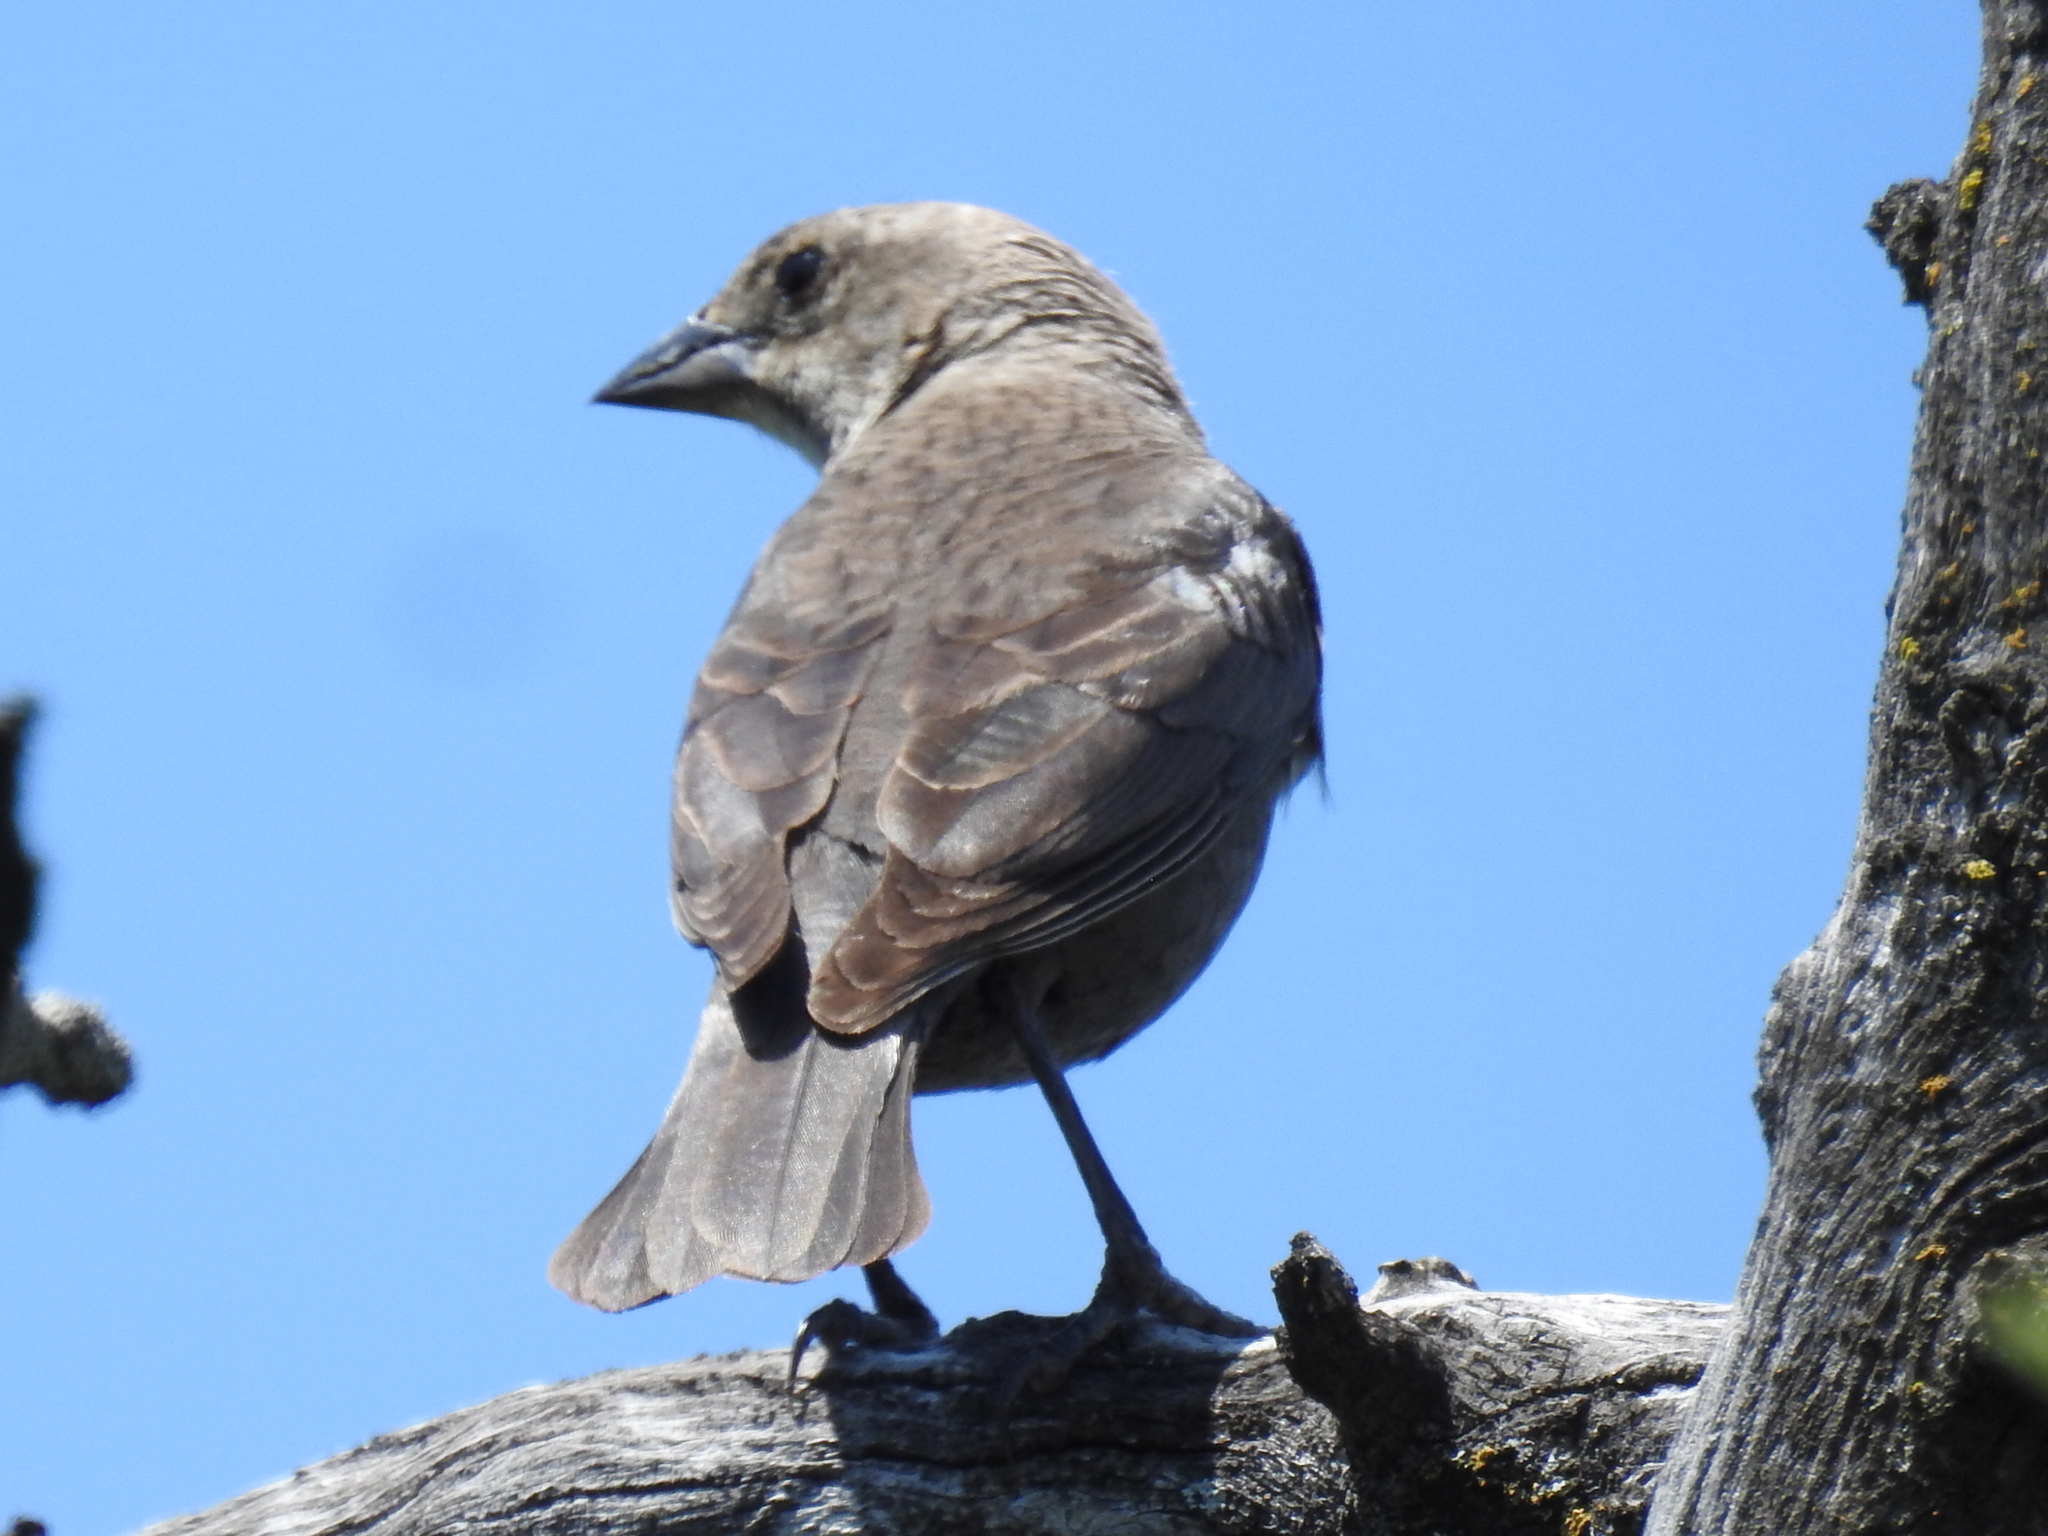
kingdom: Animalia
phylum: Chordata
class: Aves
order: Passeriformes
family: Icteridae
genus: Molothrus
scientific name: Molothrus ater
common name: Brown-headed cowbird
